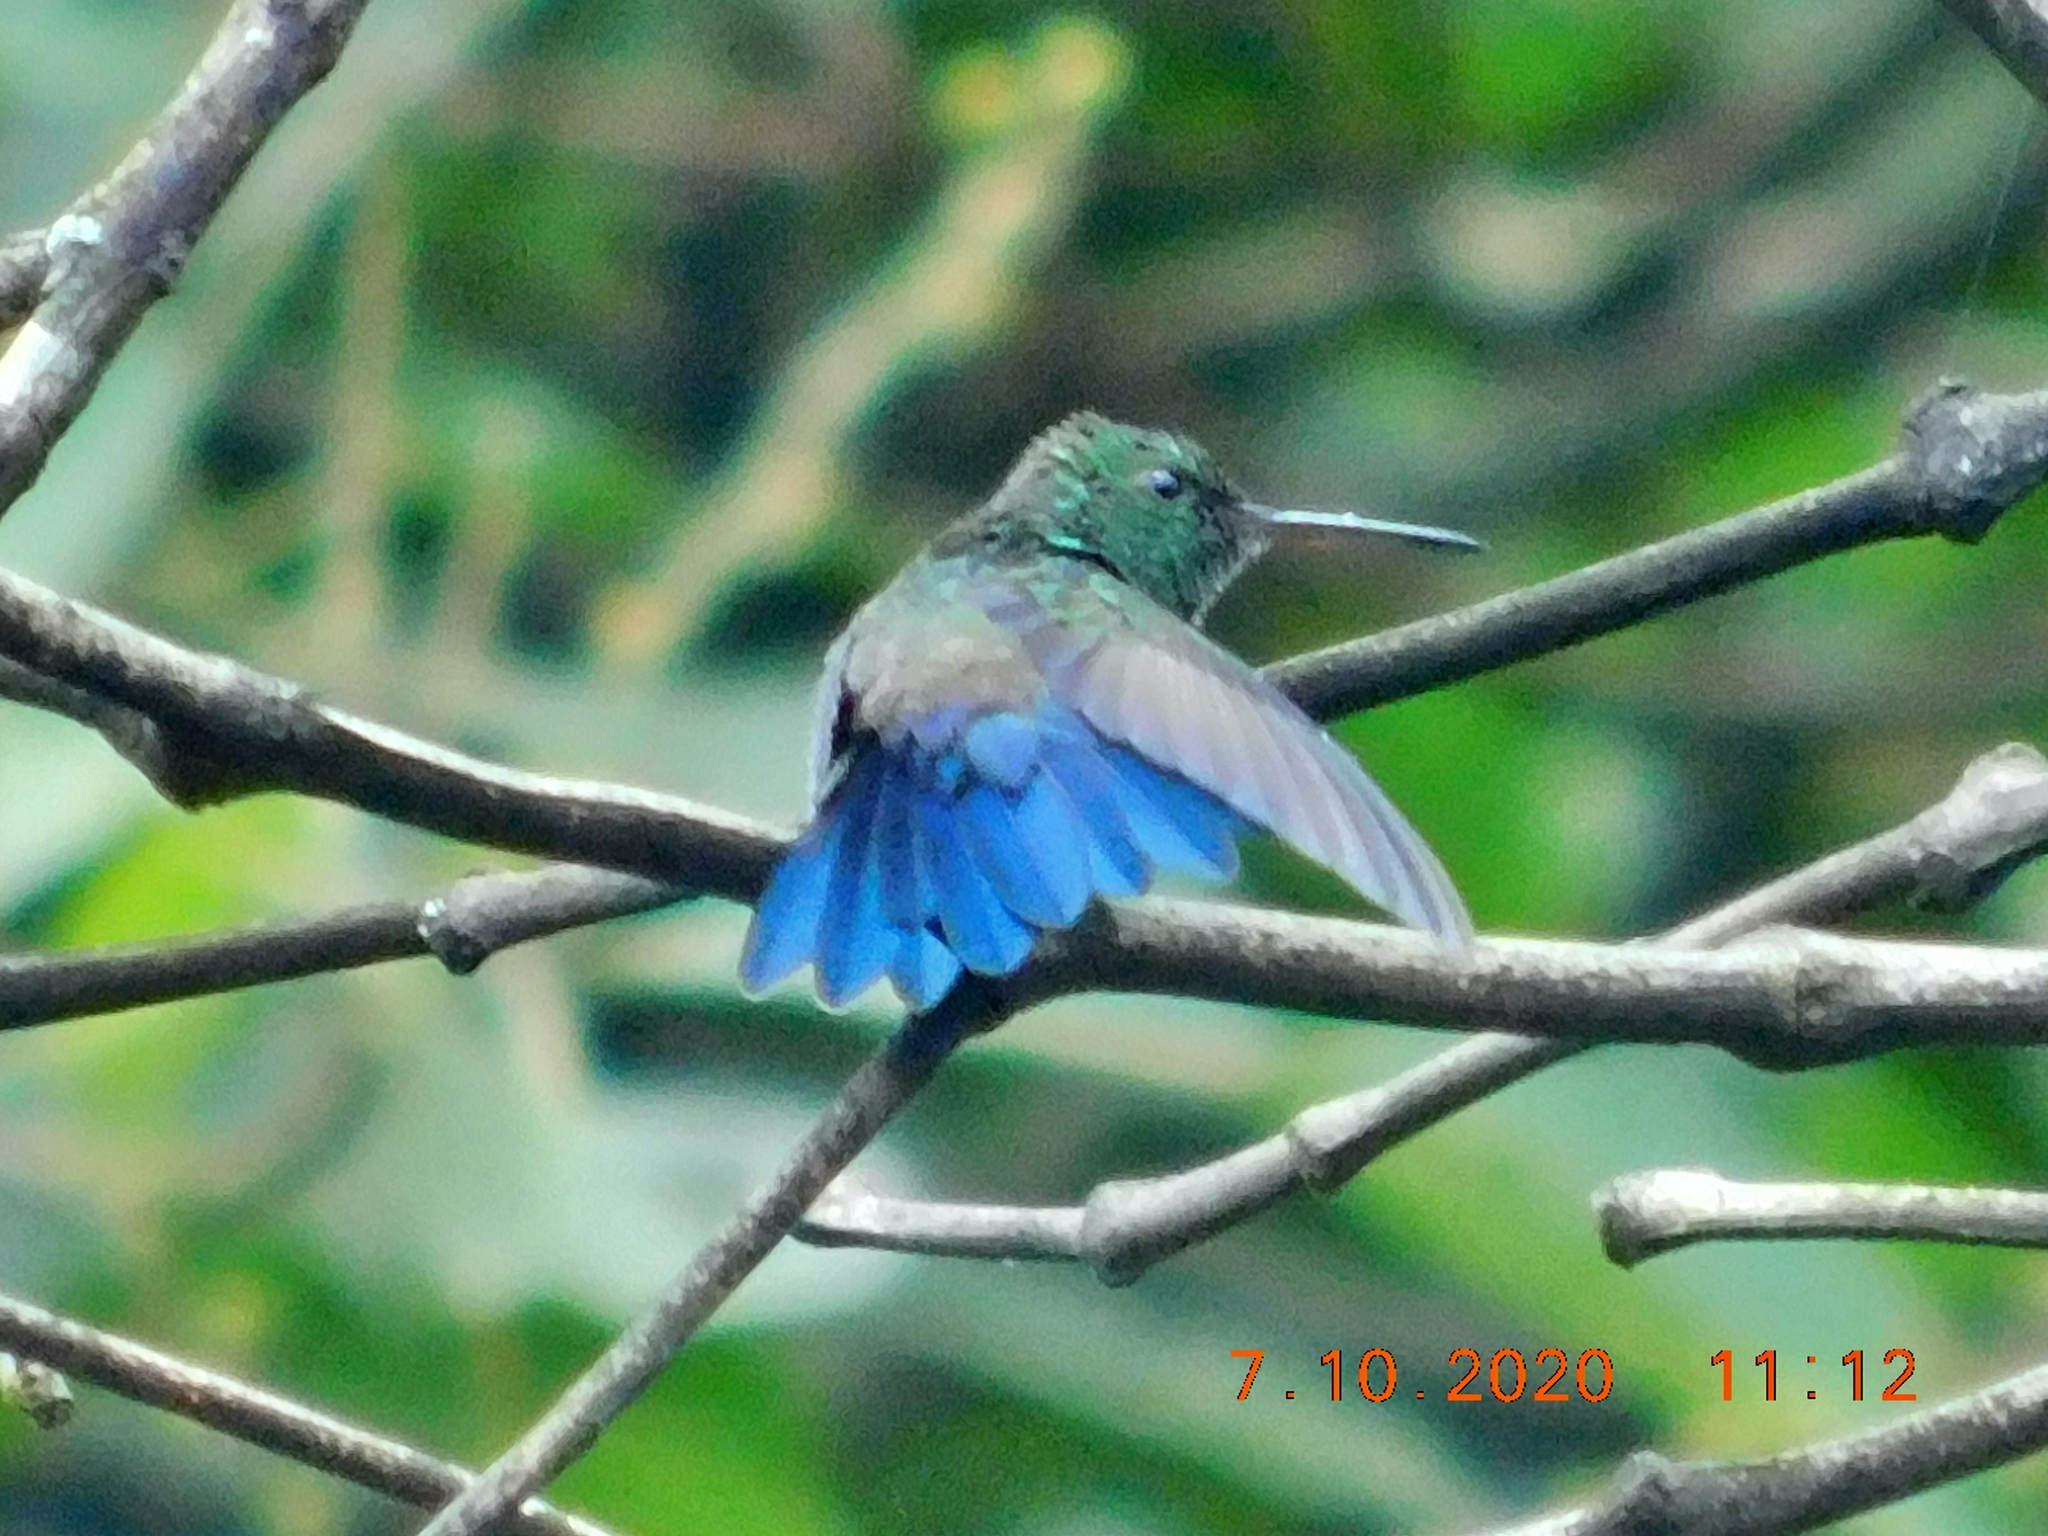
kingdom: Animalia
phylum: Chordata
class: Aves
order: Apodiformes
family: Trochilidae
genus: Saucerottia
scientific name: Saucerottia hoffmanni
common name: Blue-vented hummingbird
